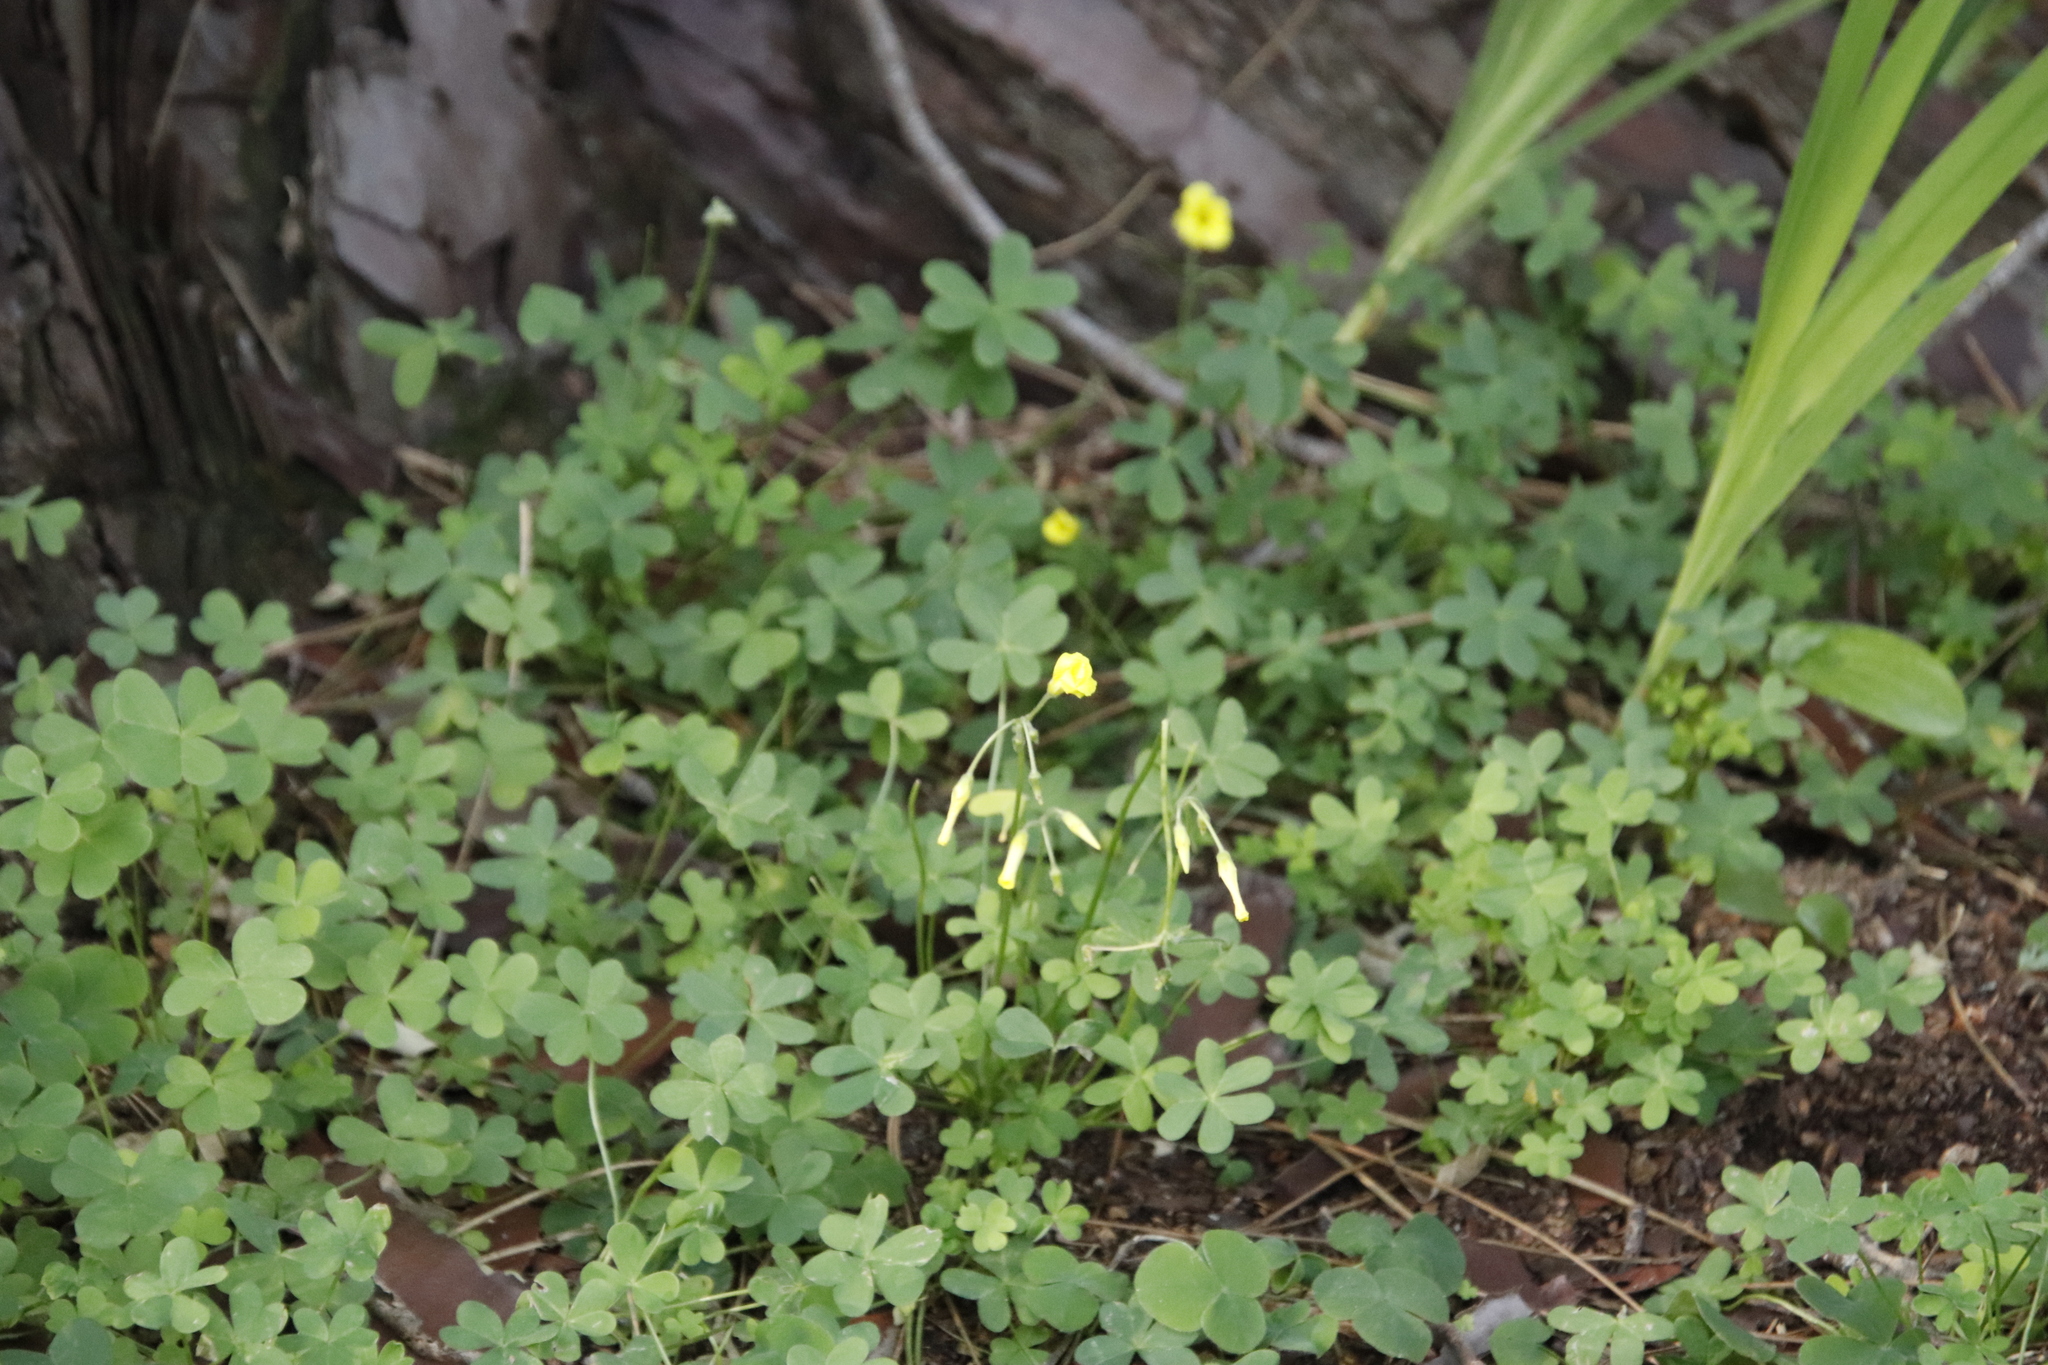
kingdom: Plantae
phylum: Tracheophyta
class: Magnoliopsida
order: Oxalidales
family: Oxalidaceae
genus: Oxalis
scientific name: Oxalis pes-caprae
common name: Bermuda-buttercup
